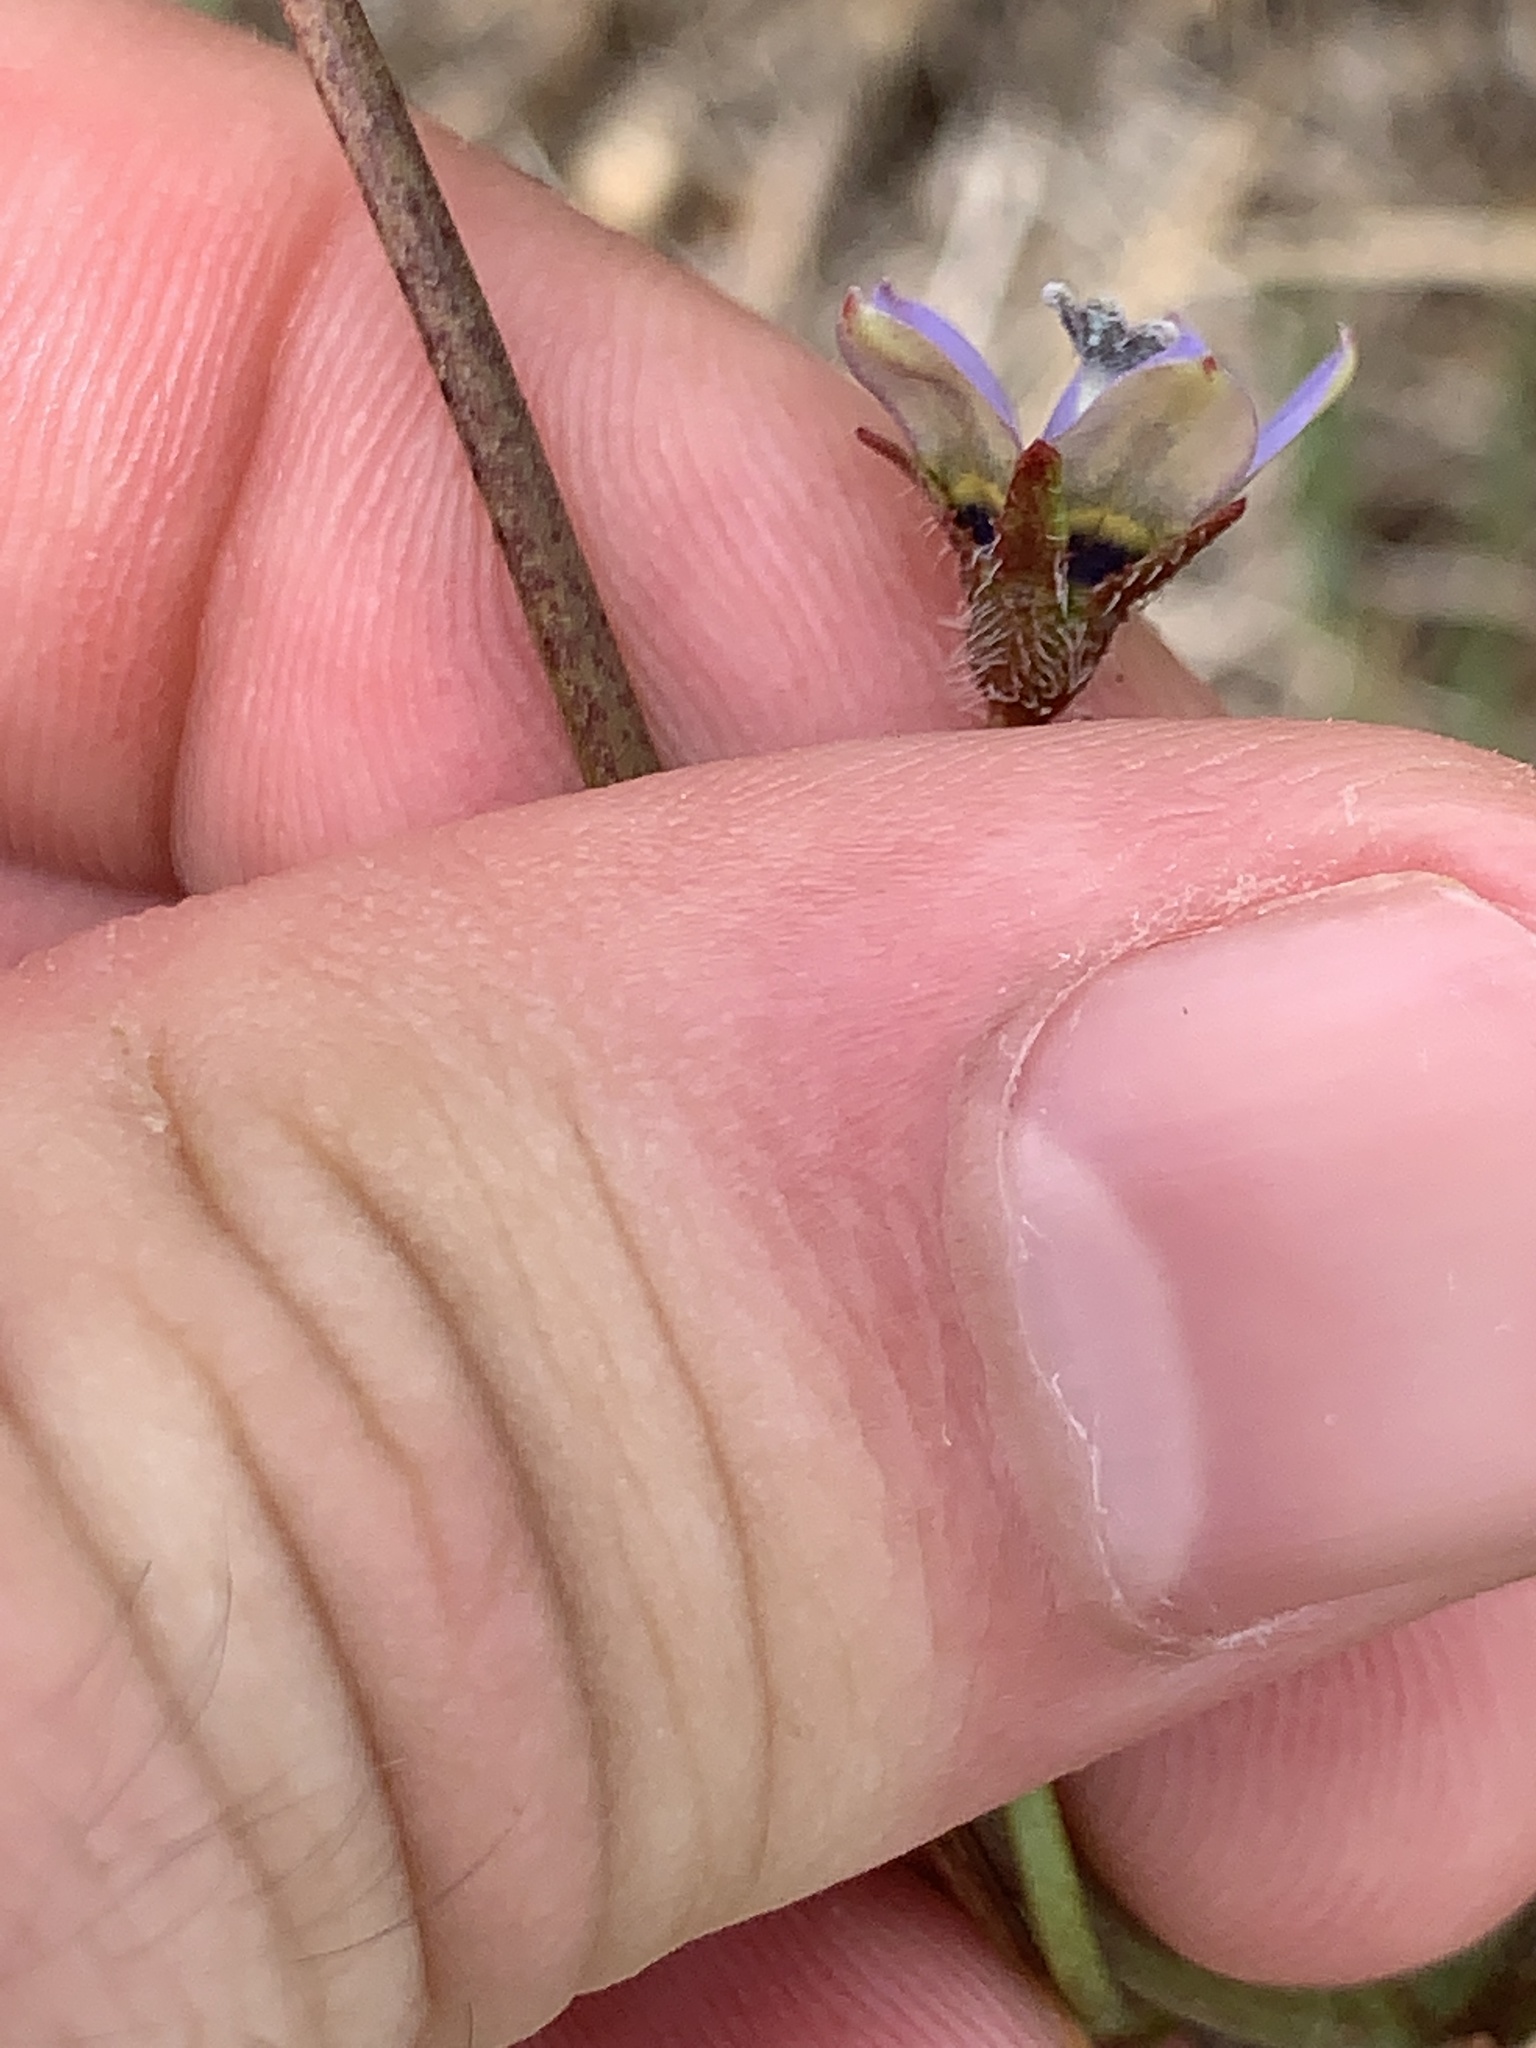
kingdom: Plantae
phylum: Tracheophyta
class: Magnoliopsida
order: Asterales
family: Campanulaceae
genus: Wahlenbergia
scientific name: Wahlenbergia capensis
